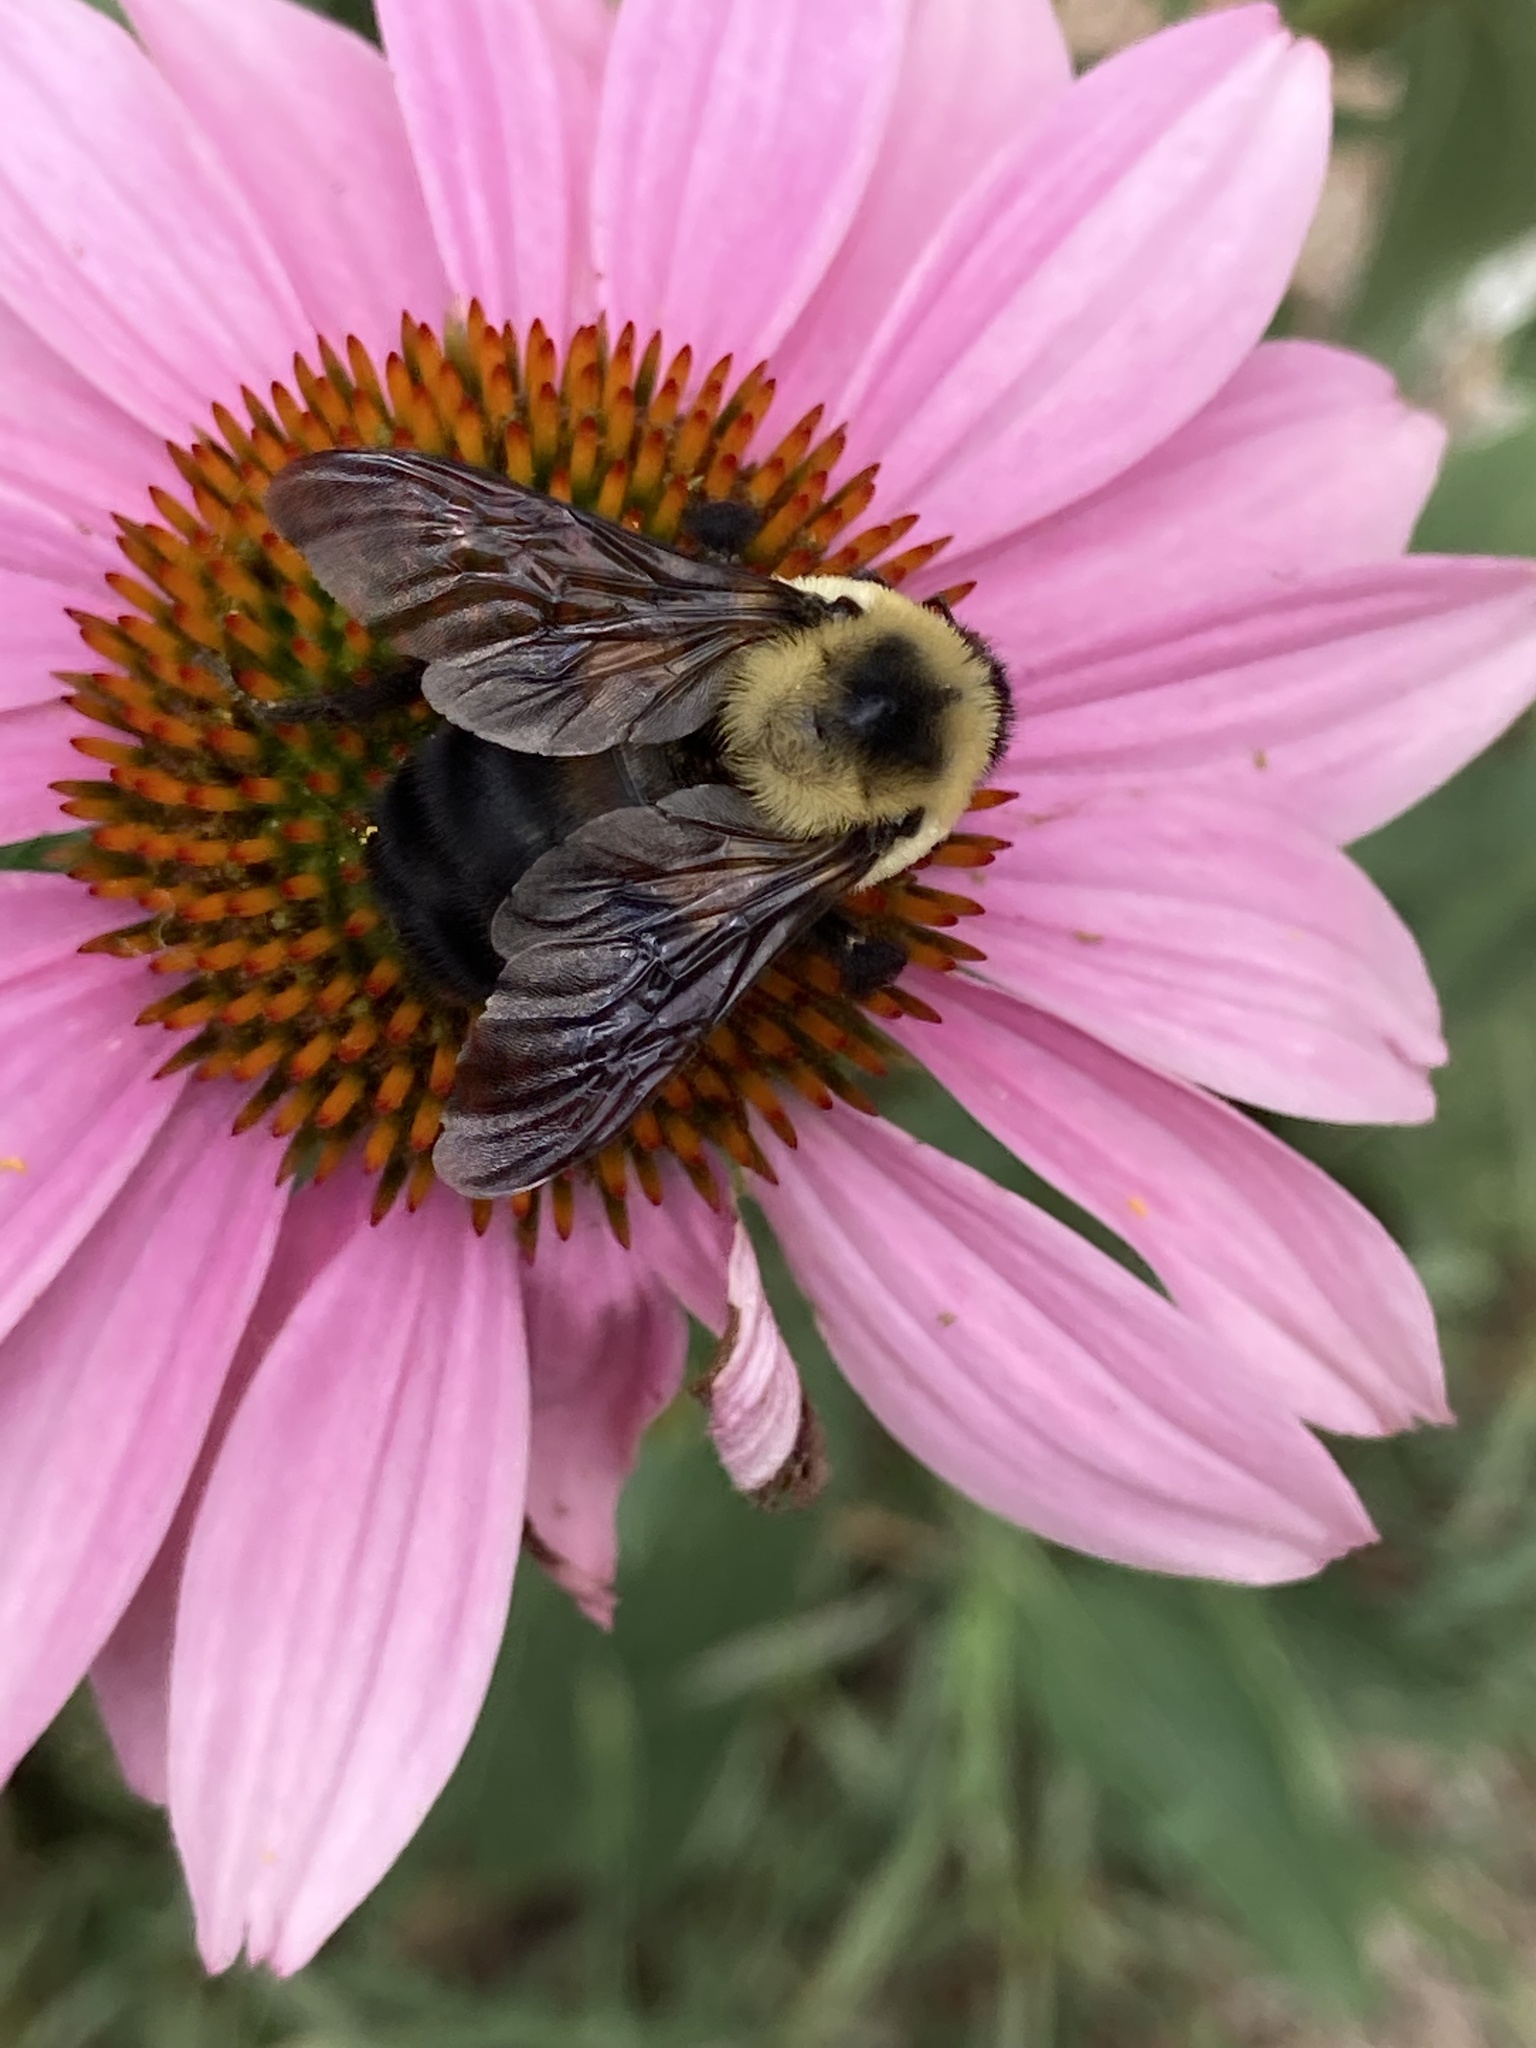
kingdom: Animalia
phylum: Arthropoda
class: Insecta
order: Hymenoptera
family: Apidae
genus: Bombus
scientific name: Bombus griseocollis
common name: Brown-belted bumble bee
